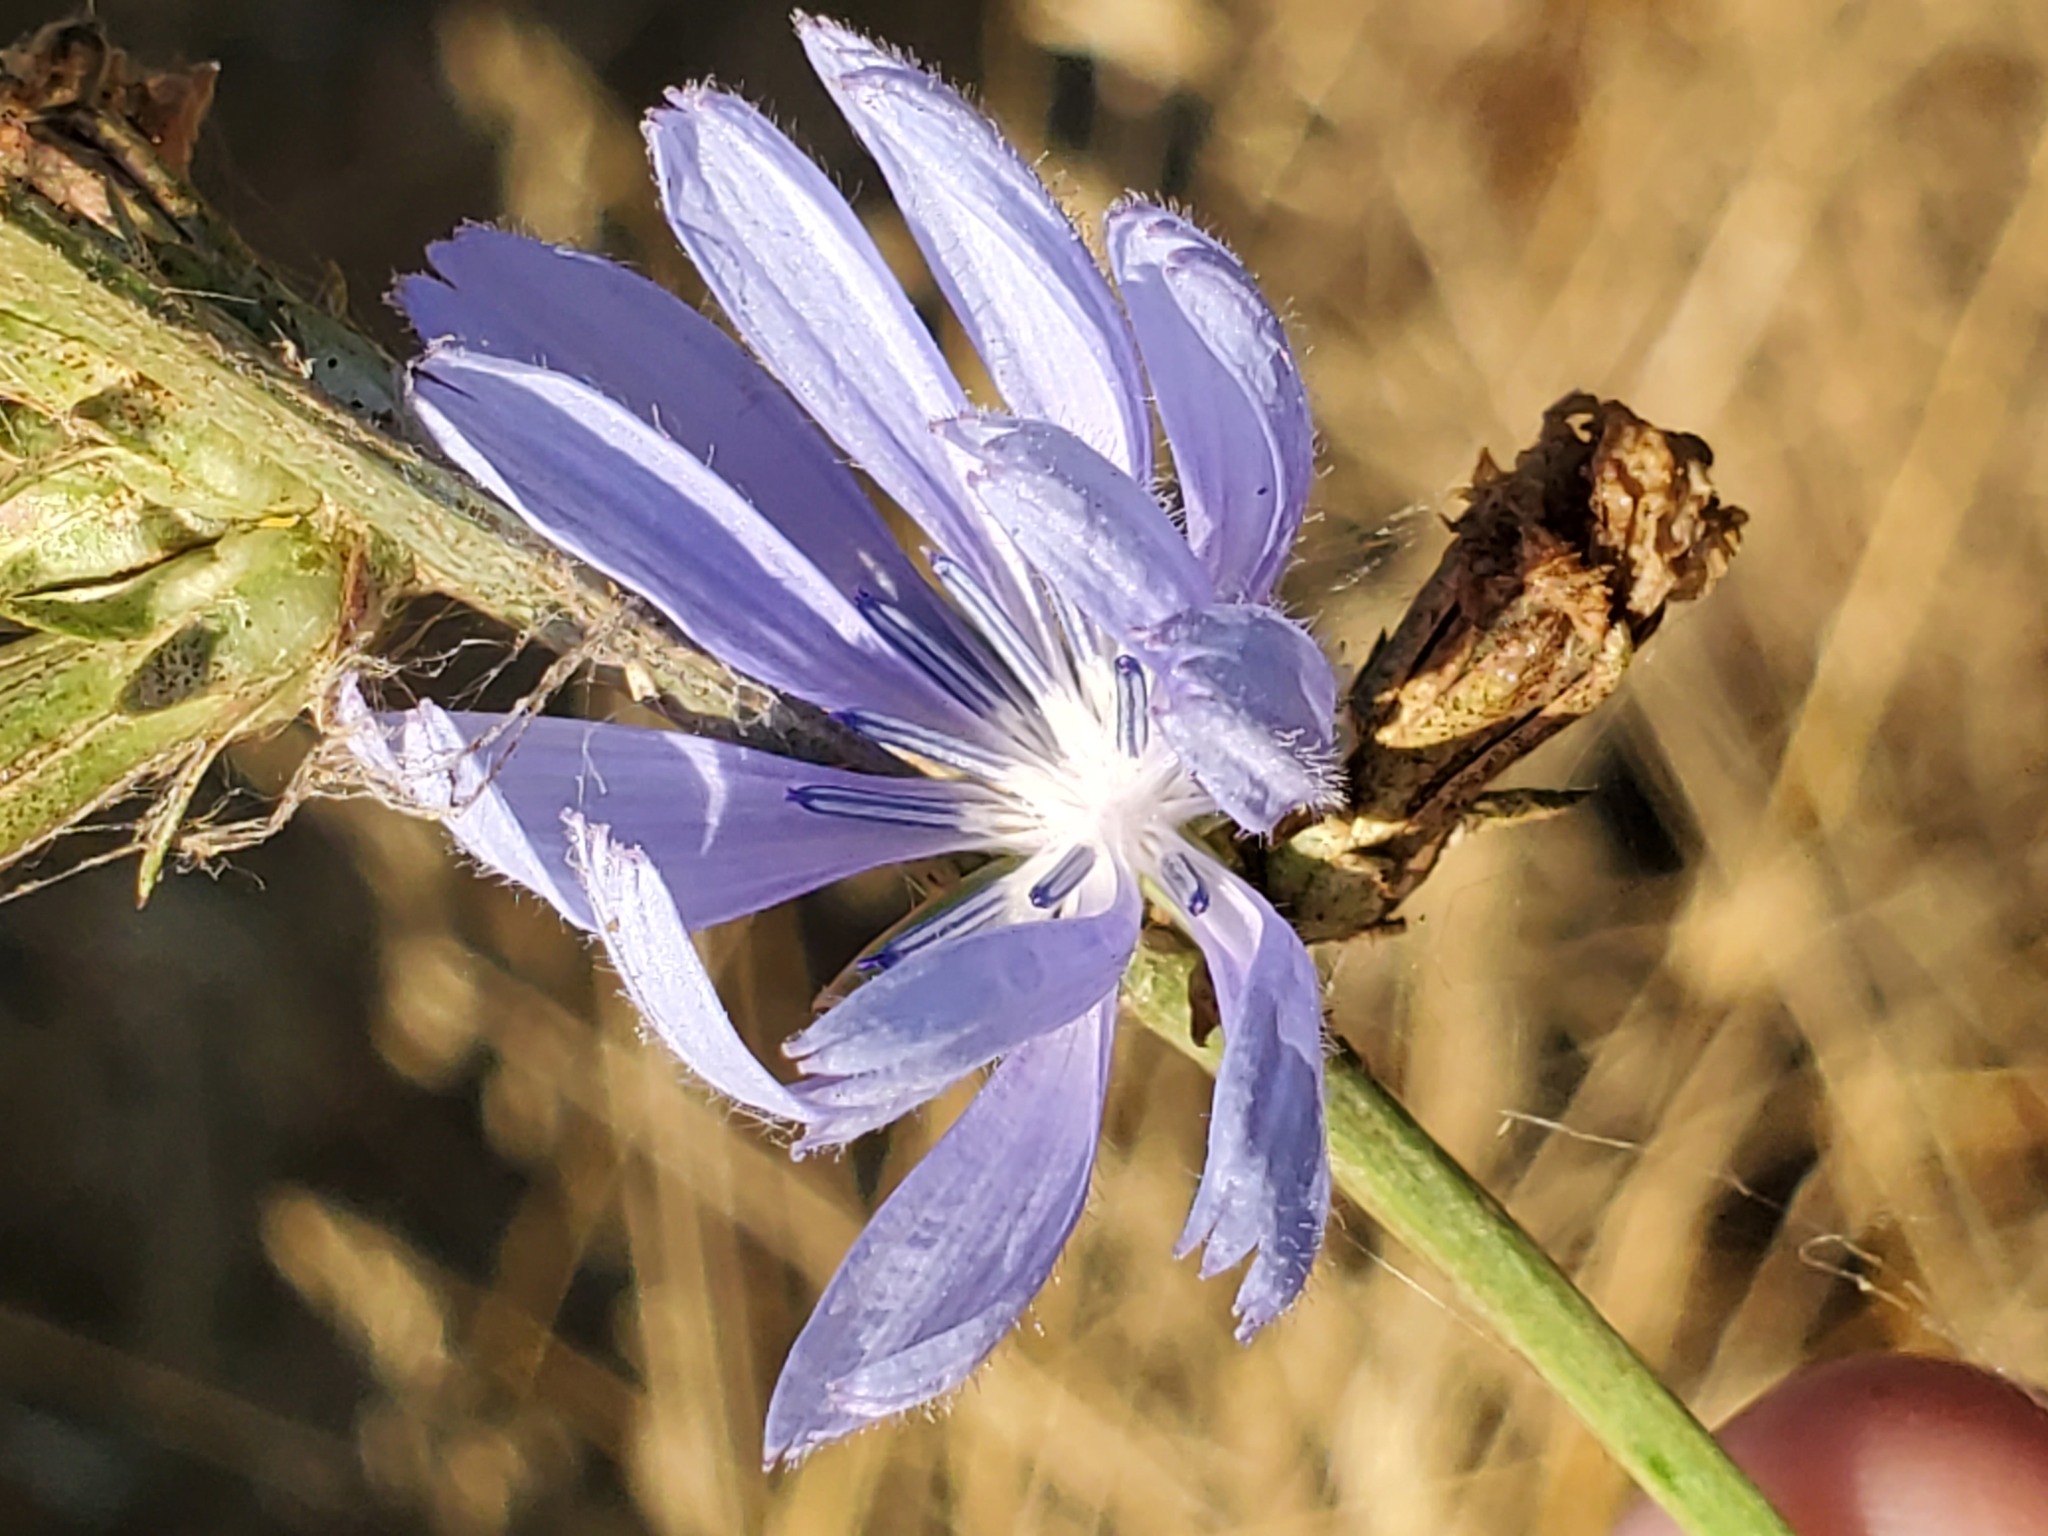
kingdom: Plantae
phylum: Tracheophyta
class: Magnoliopsida
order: Asterales
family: Asteraceae
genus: Cichorium
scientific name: Cichorium intybus
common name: Chicory
